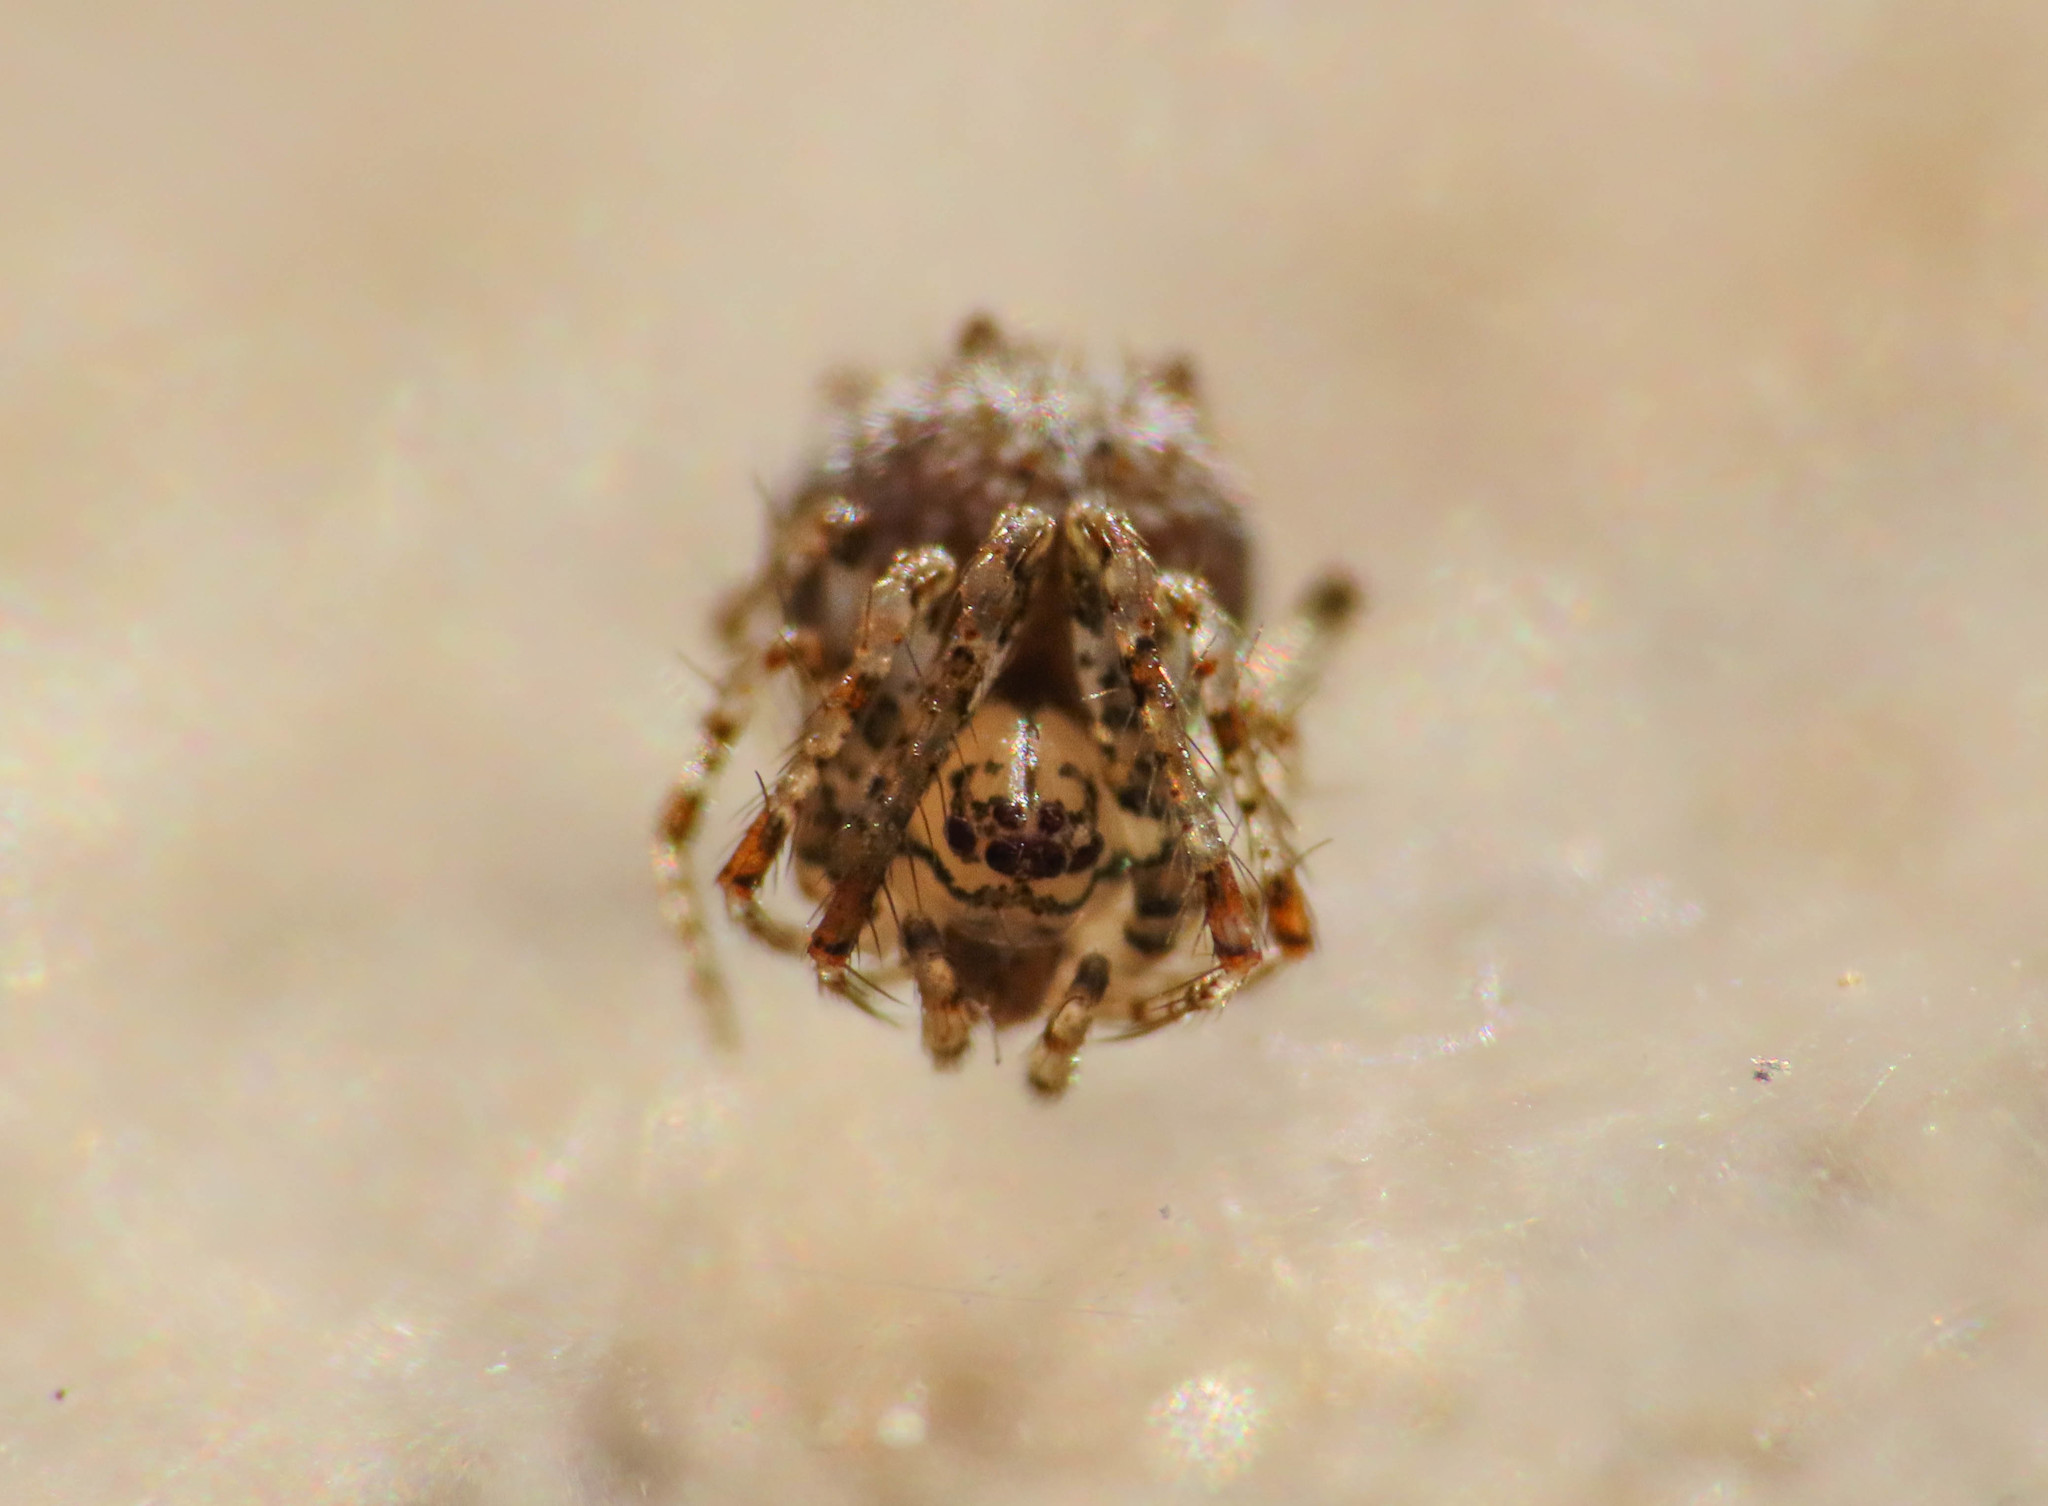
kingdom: Animalia
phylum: Arthropoda
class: Arachnida
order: Araneae
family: Mimetidae
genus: Ero
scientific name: Ero aphana
